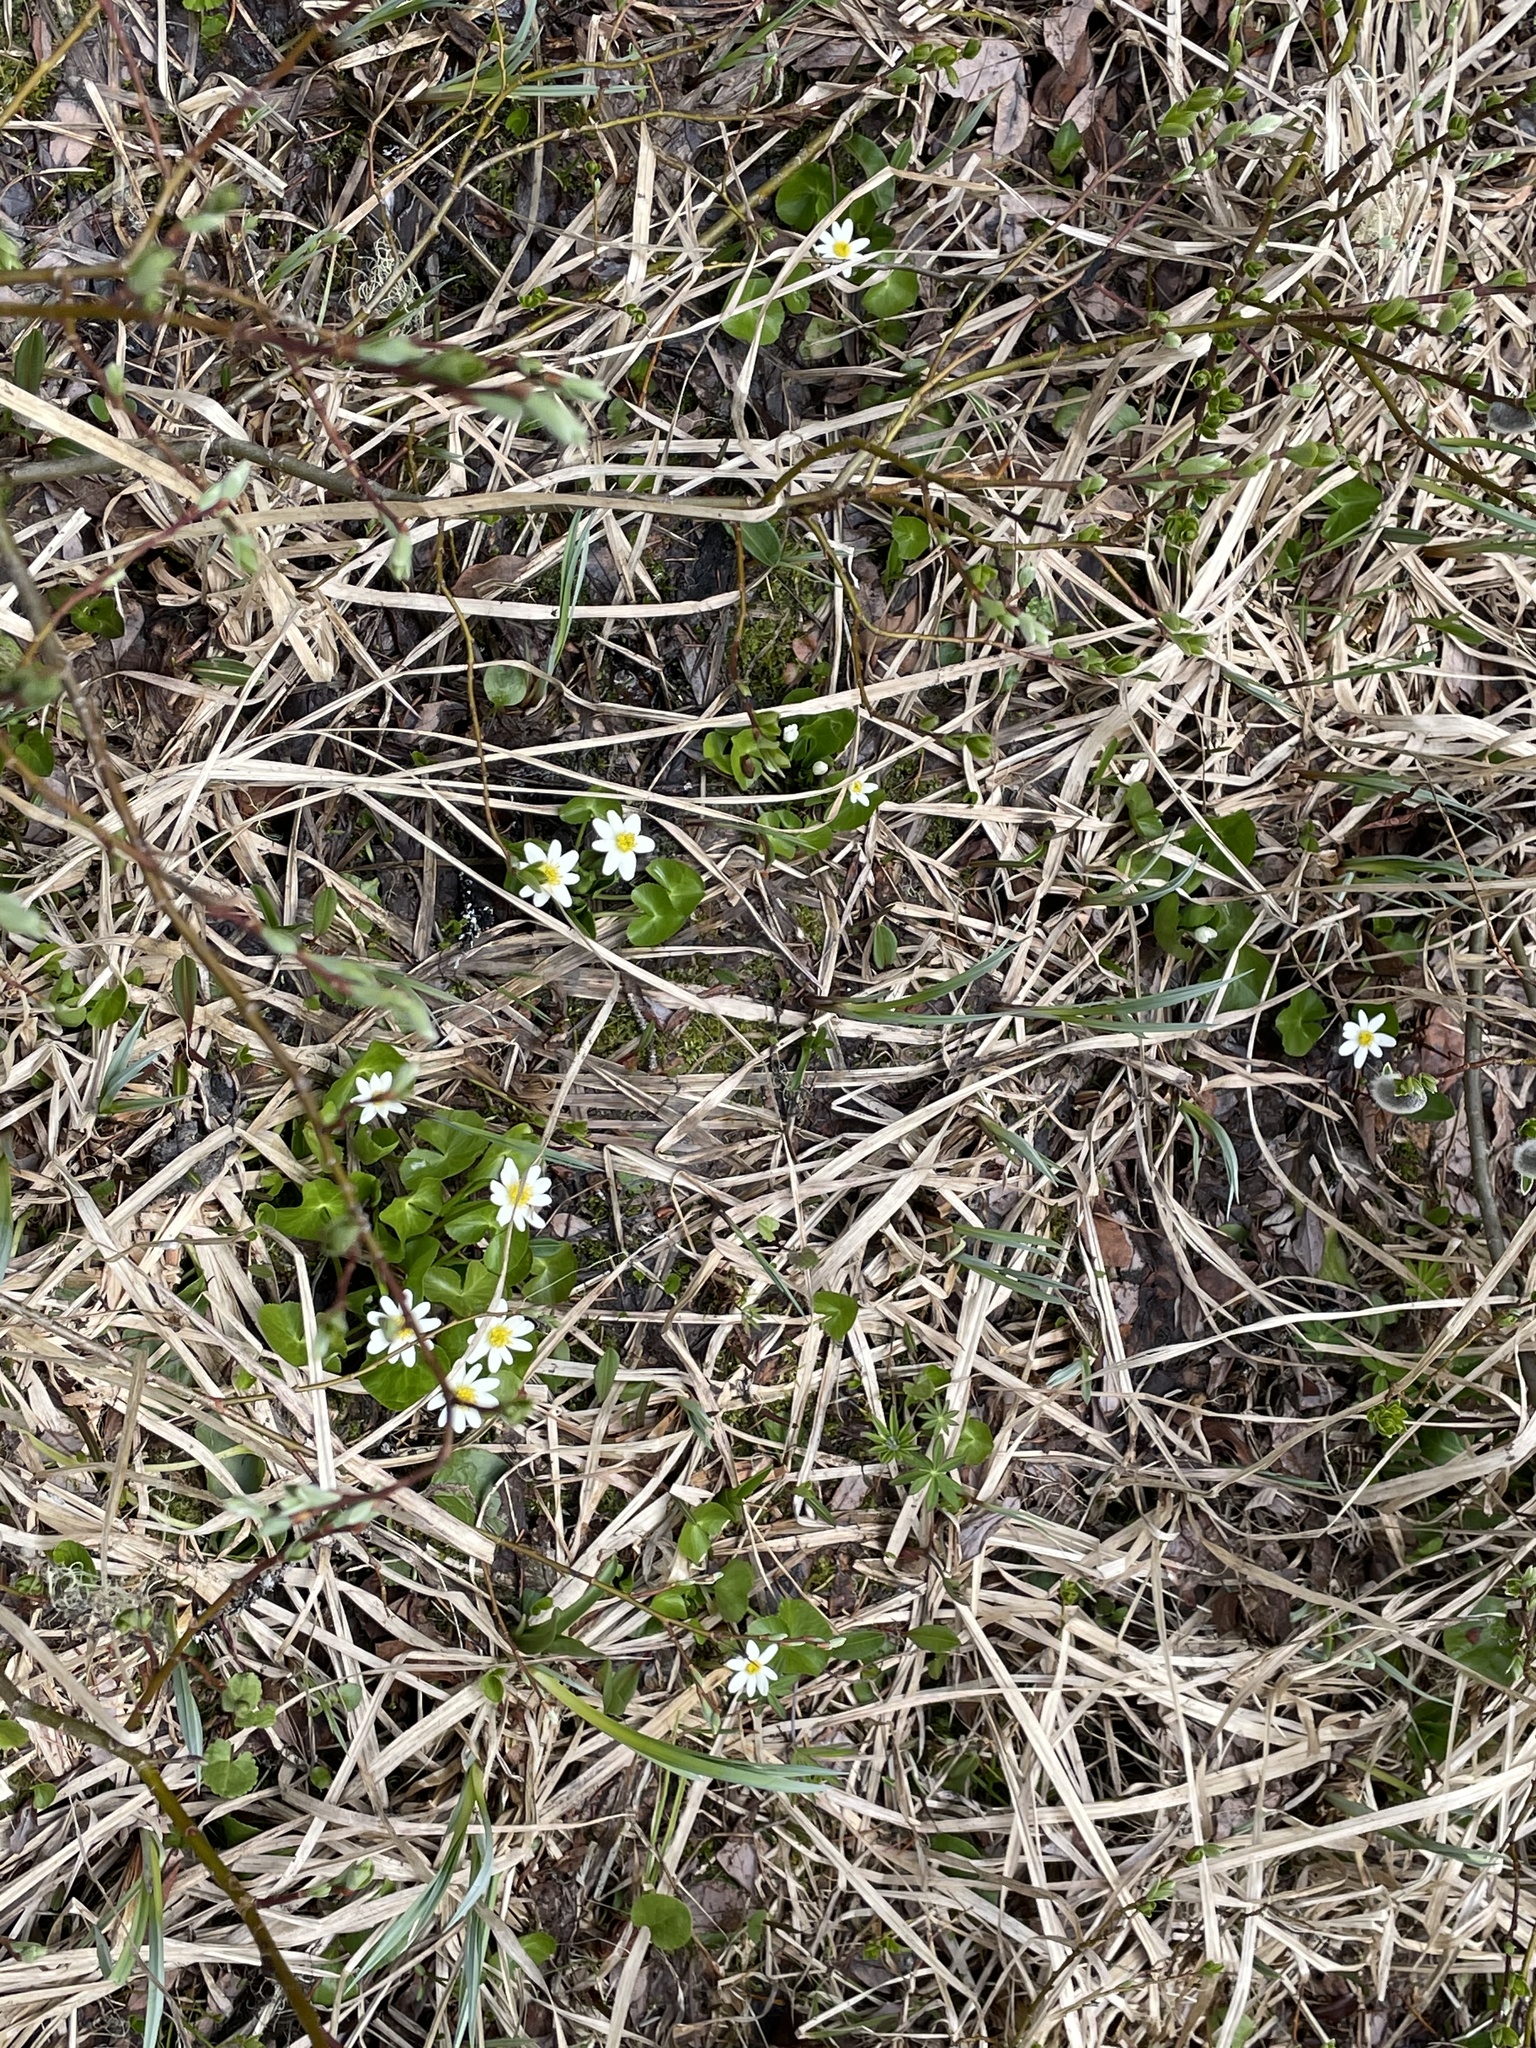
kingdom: Plantae
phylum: Tracheophyta
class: Magnoliopsida
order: Ranunculales
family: Ranunculaceae
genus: Caltha
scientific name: Caltha leptosepala
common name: Elkslip
